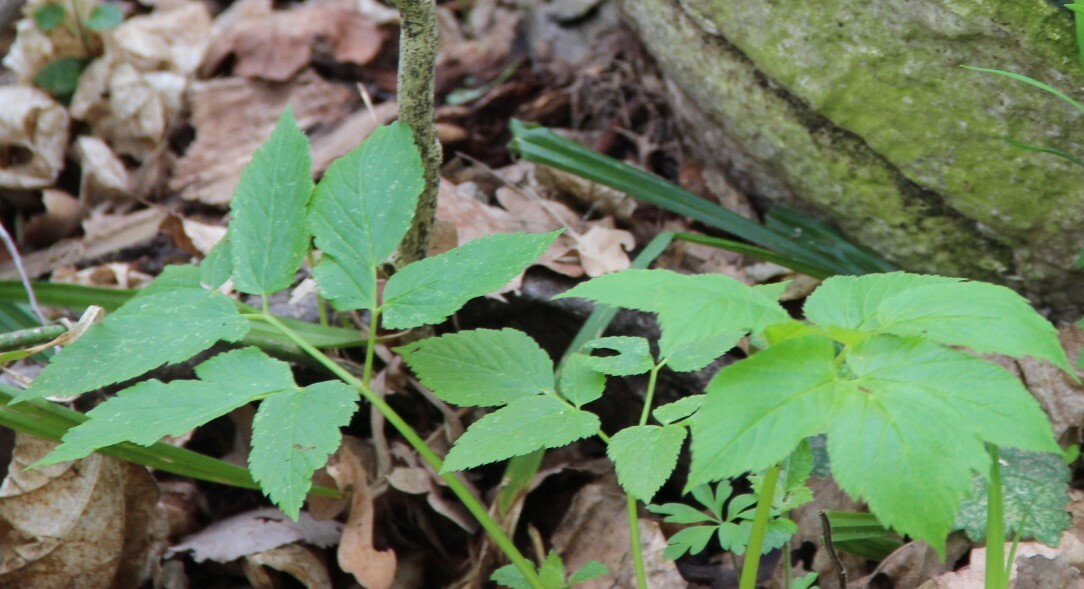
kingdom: Plantae
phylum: Tracheophyta
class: Magnoliopsida
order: Apiales
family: Apiaceae
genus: Aegopodium
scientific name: Aegopodium podagraria
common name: Ground-elder
